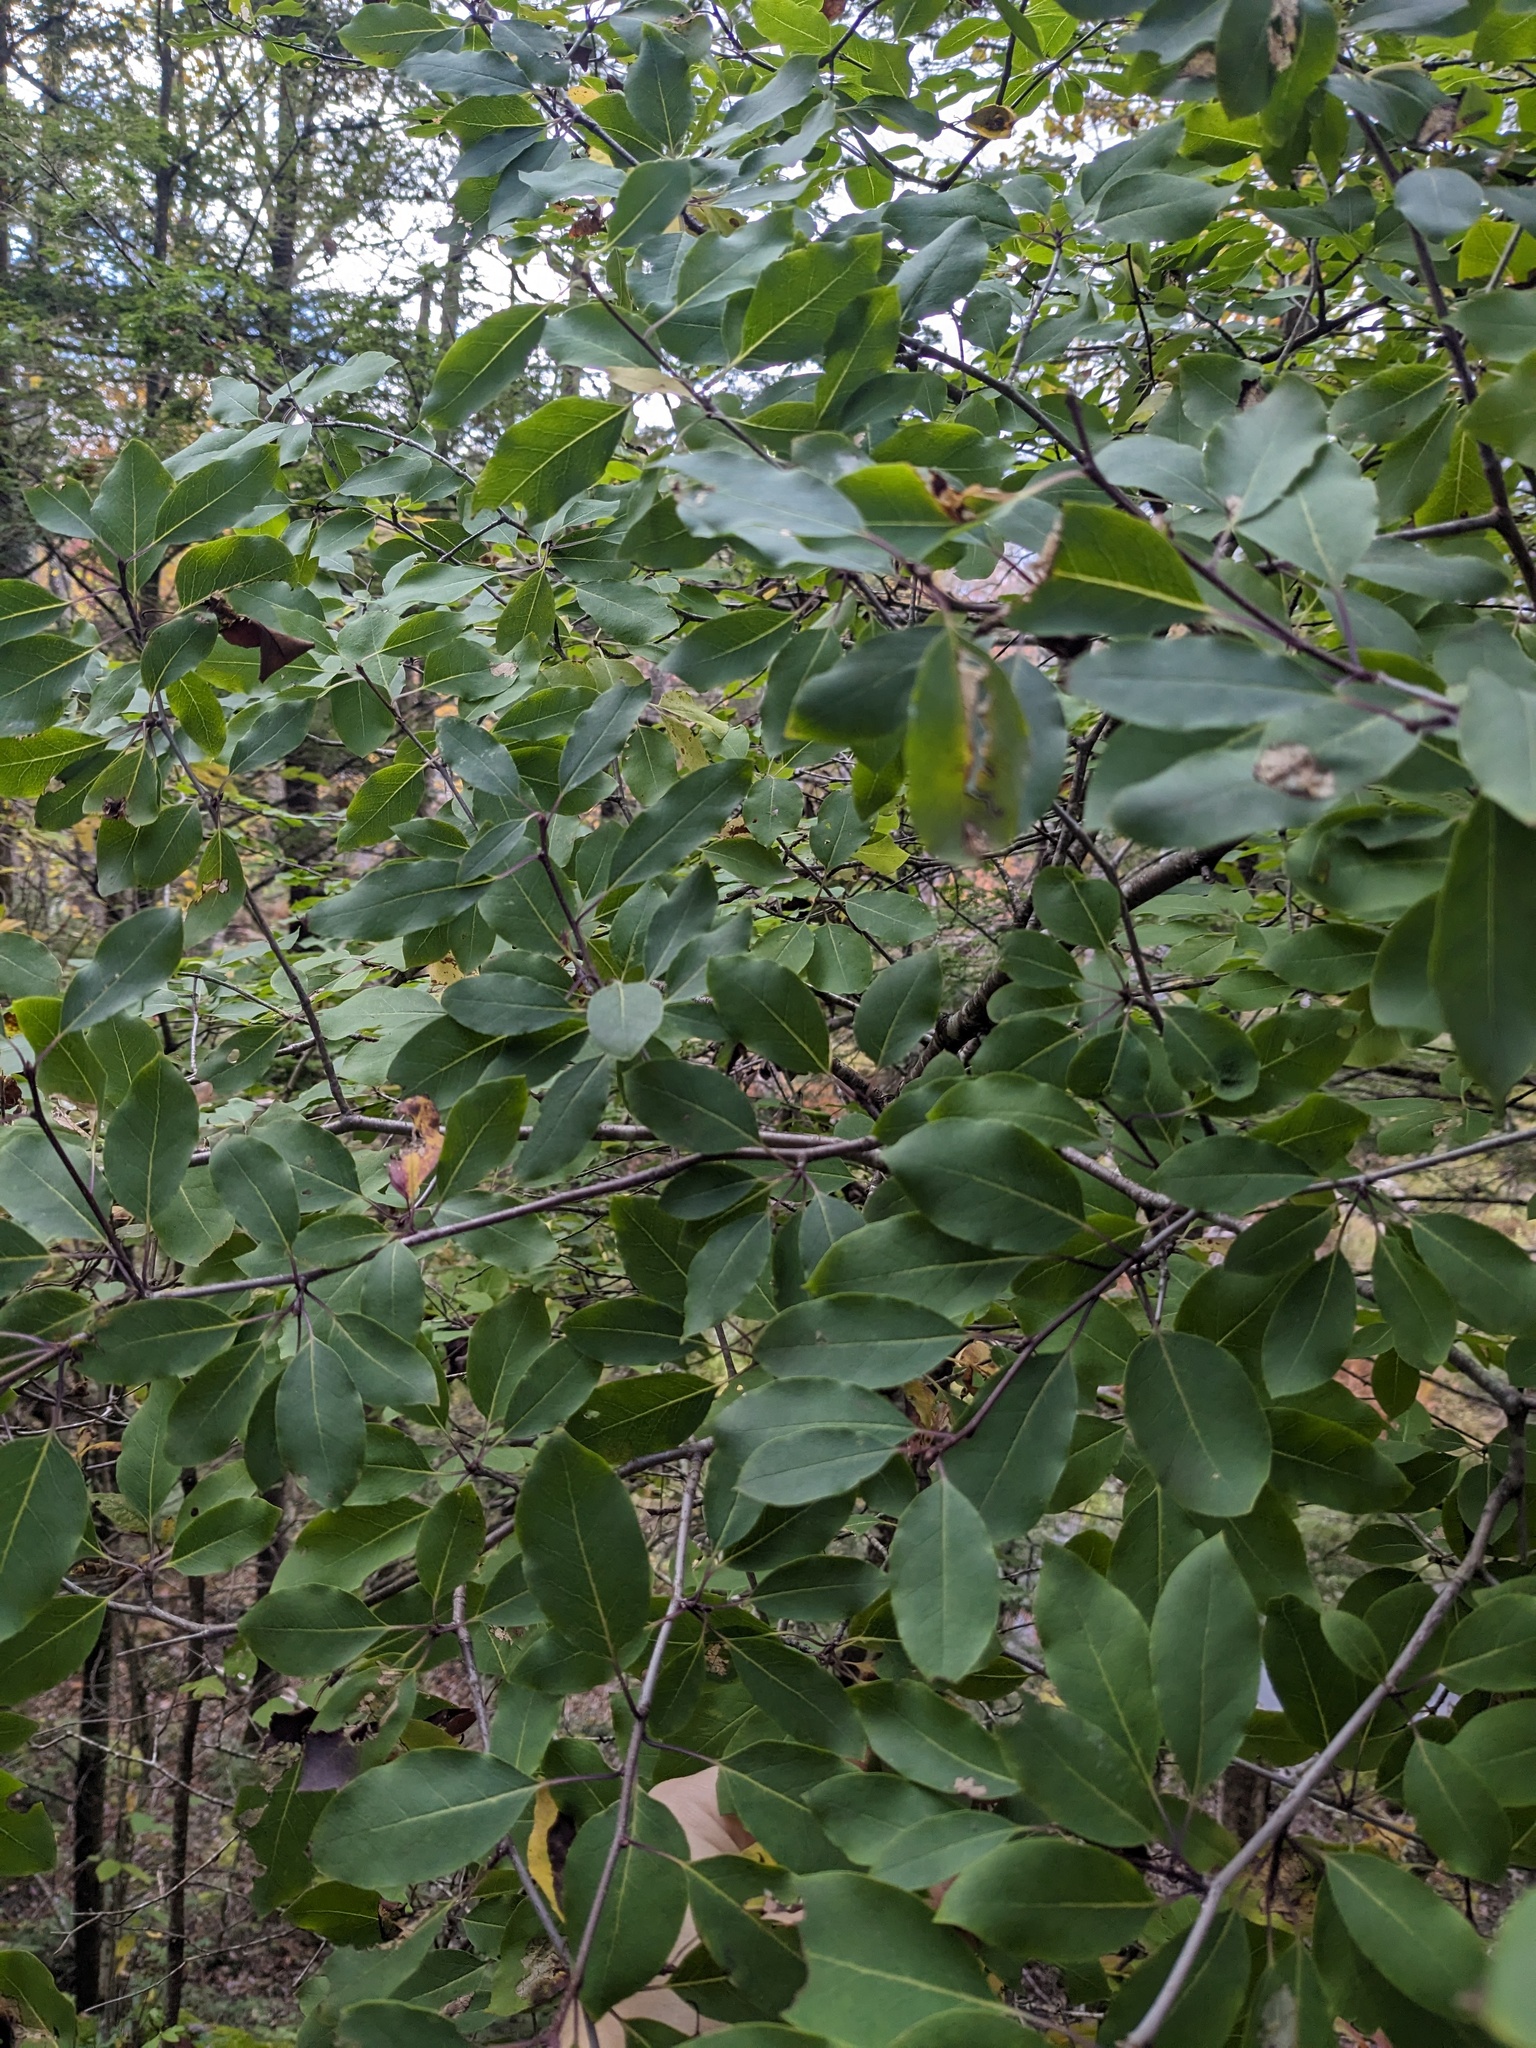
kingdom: Plantae
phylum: Tracheophyta
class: Magnoliopsida
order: Aquifoliales
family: Aquifoliaceae
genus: Ilex
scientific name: Ilex mucronata
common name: Catberry
